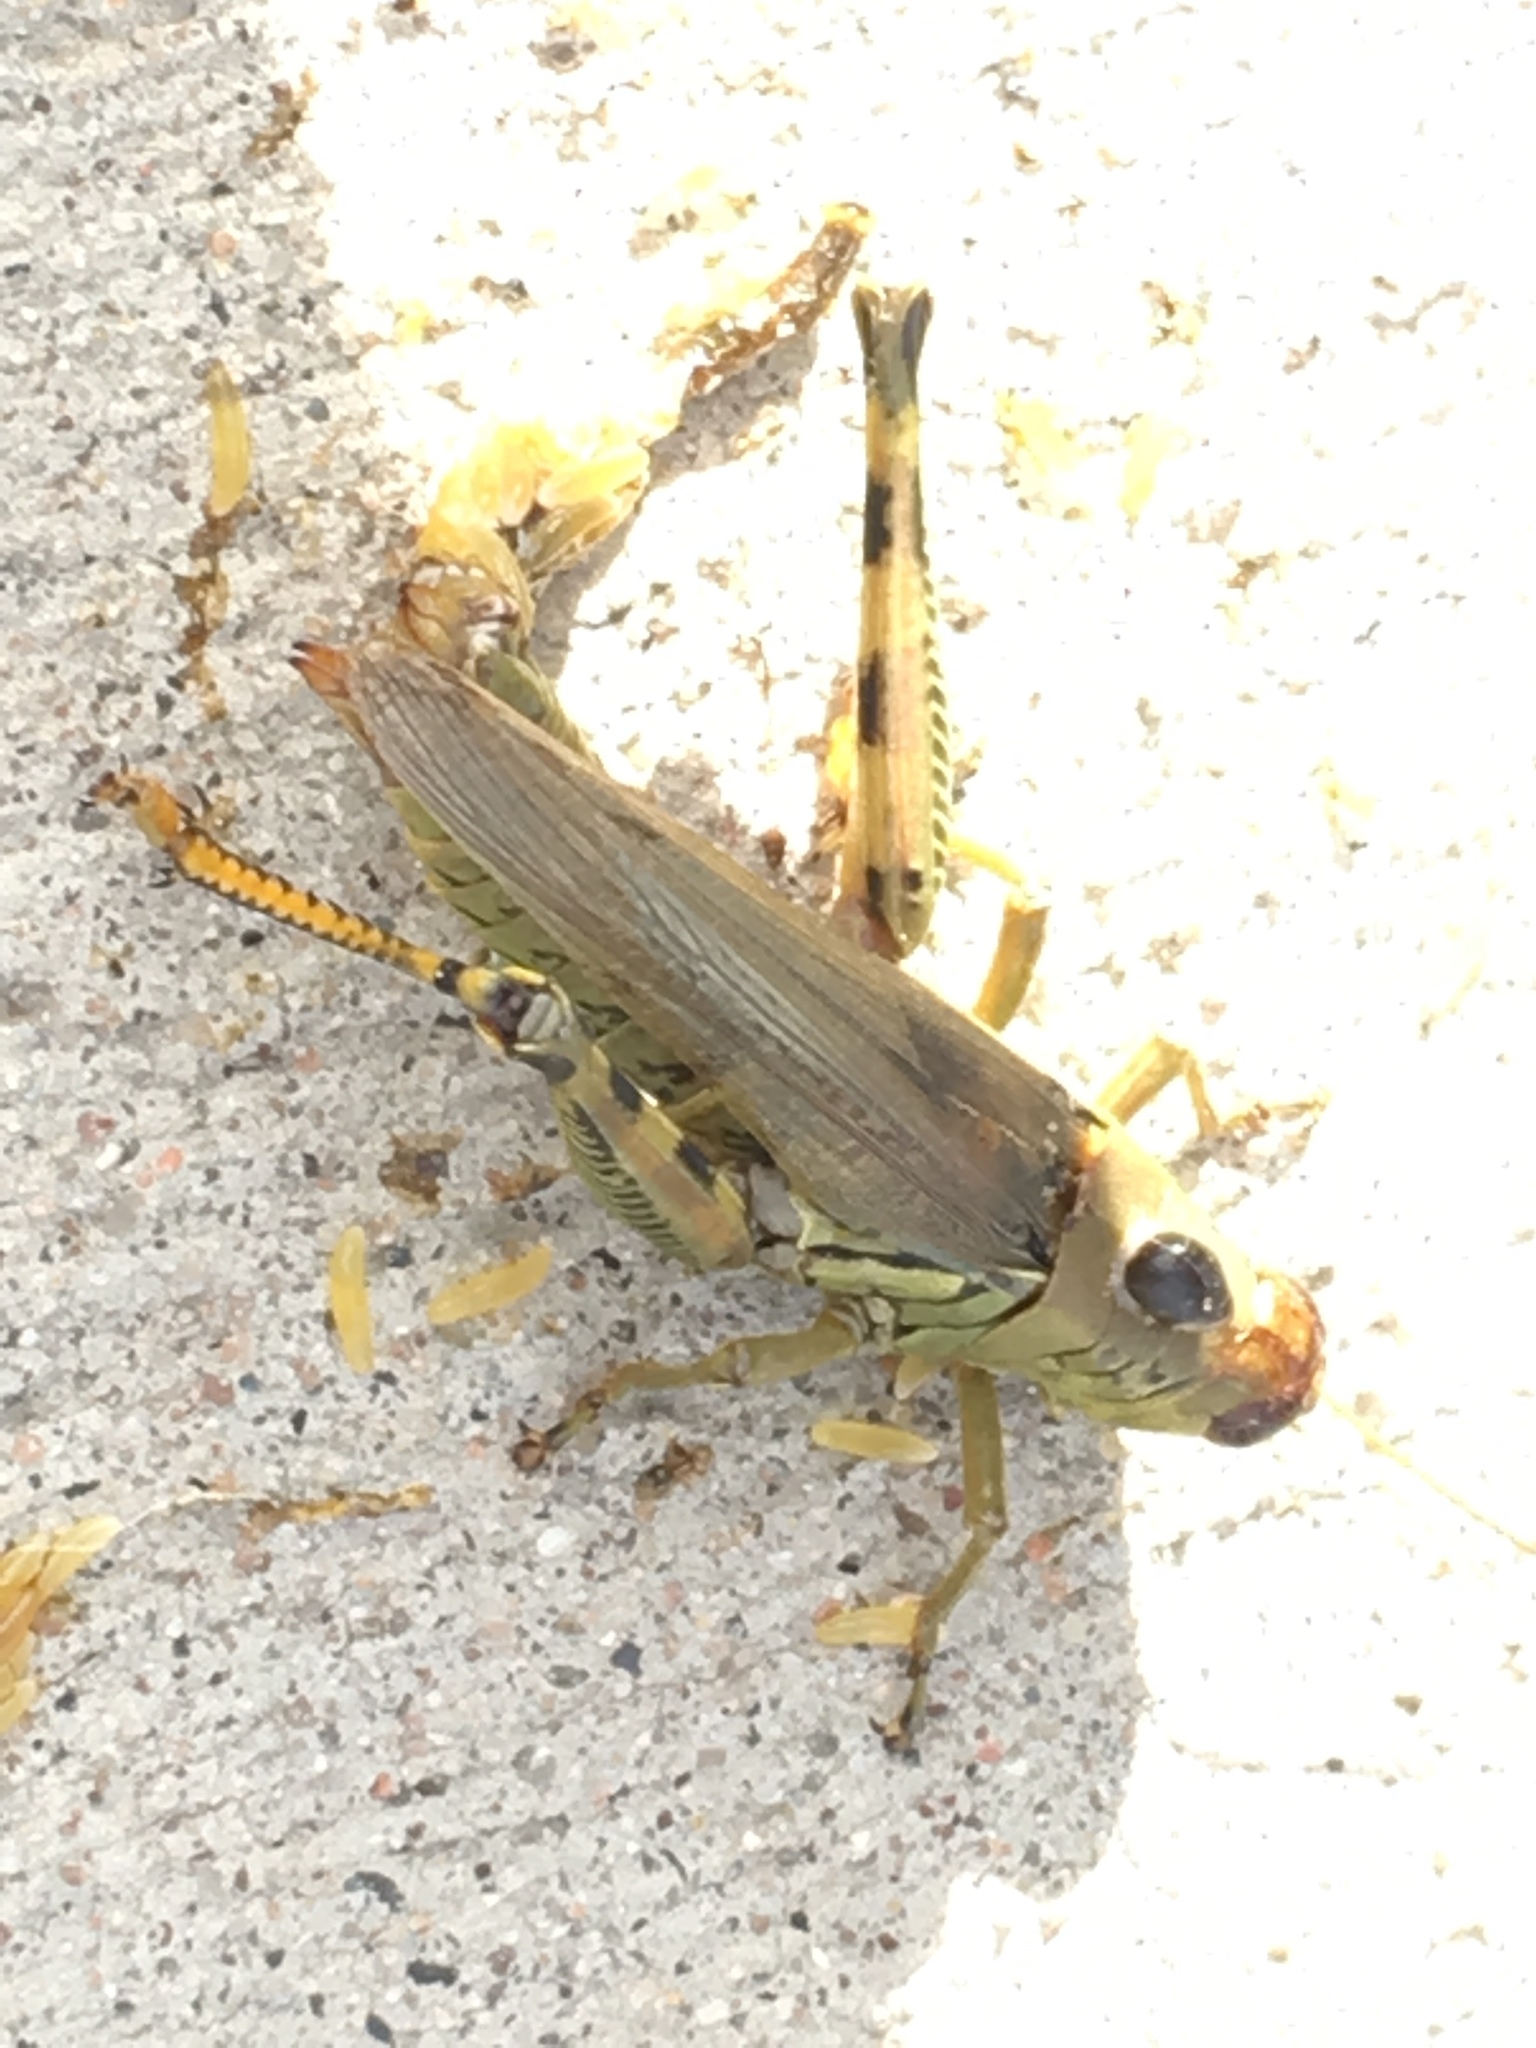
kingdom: Animalia
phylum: Arthropoda
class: Insecta
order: Orthoptera
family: Acrididae
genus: Melanoplus
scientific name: Melanoplus differentialis
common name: Differential grasshopper
